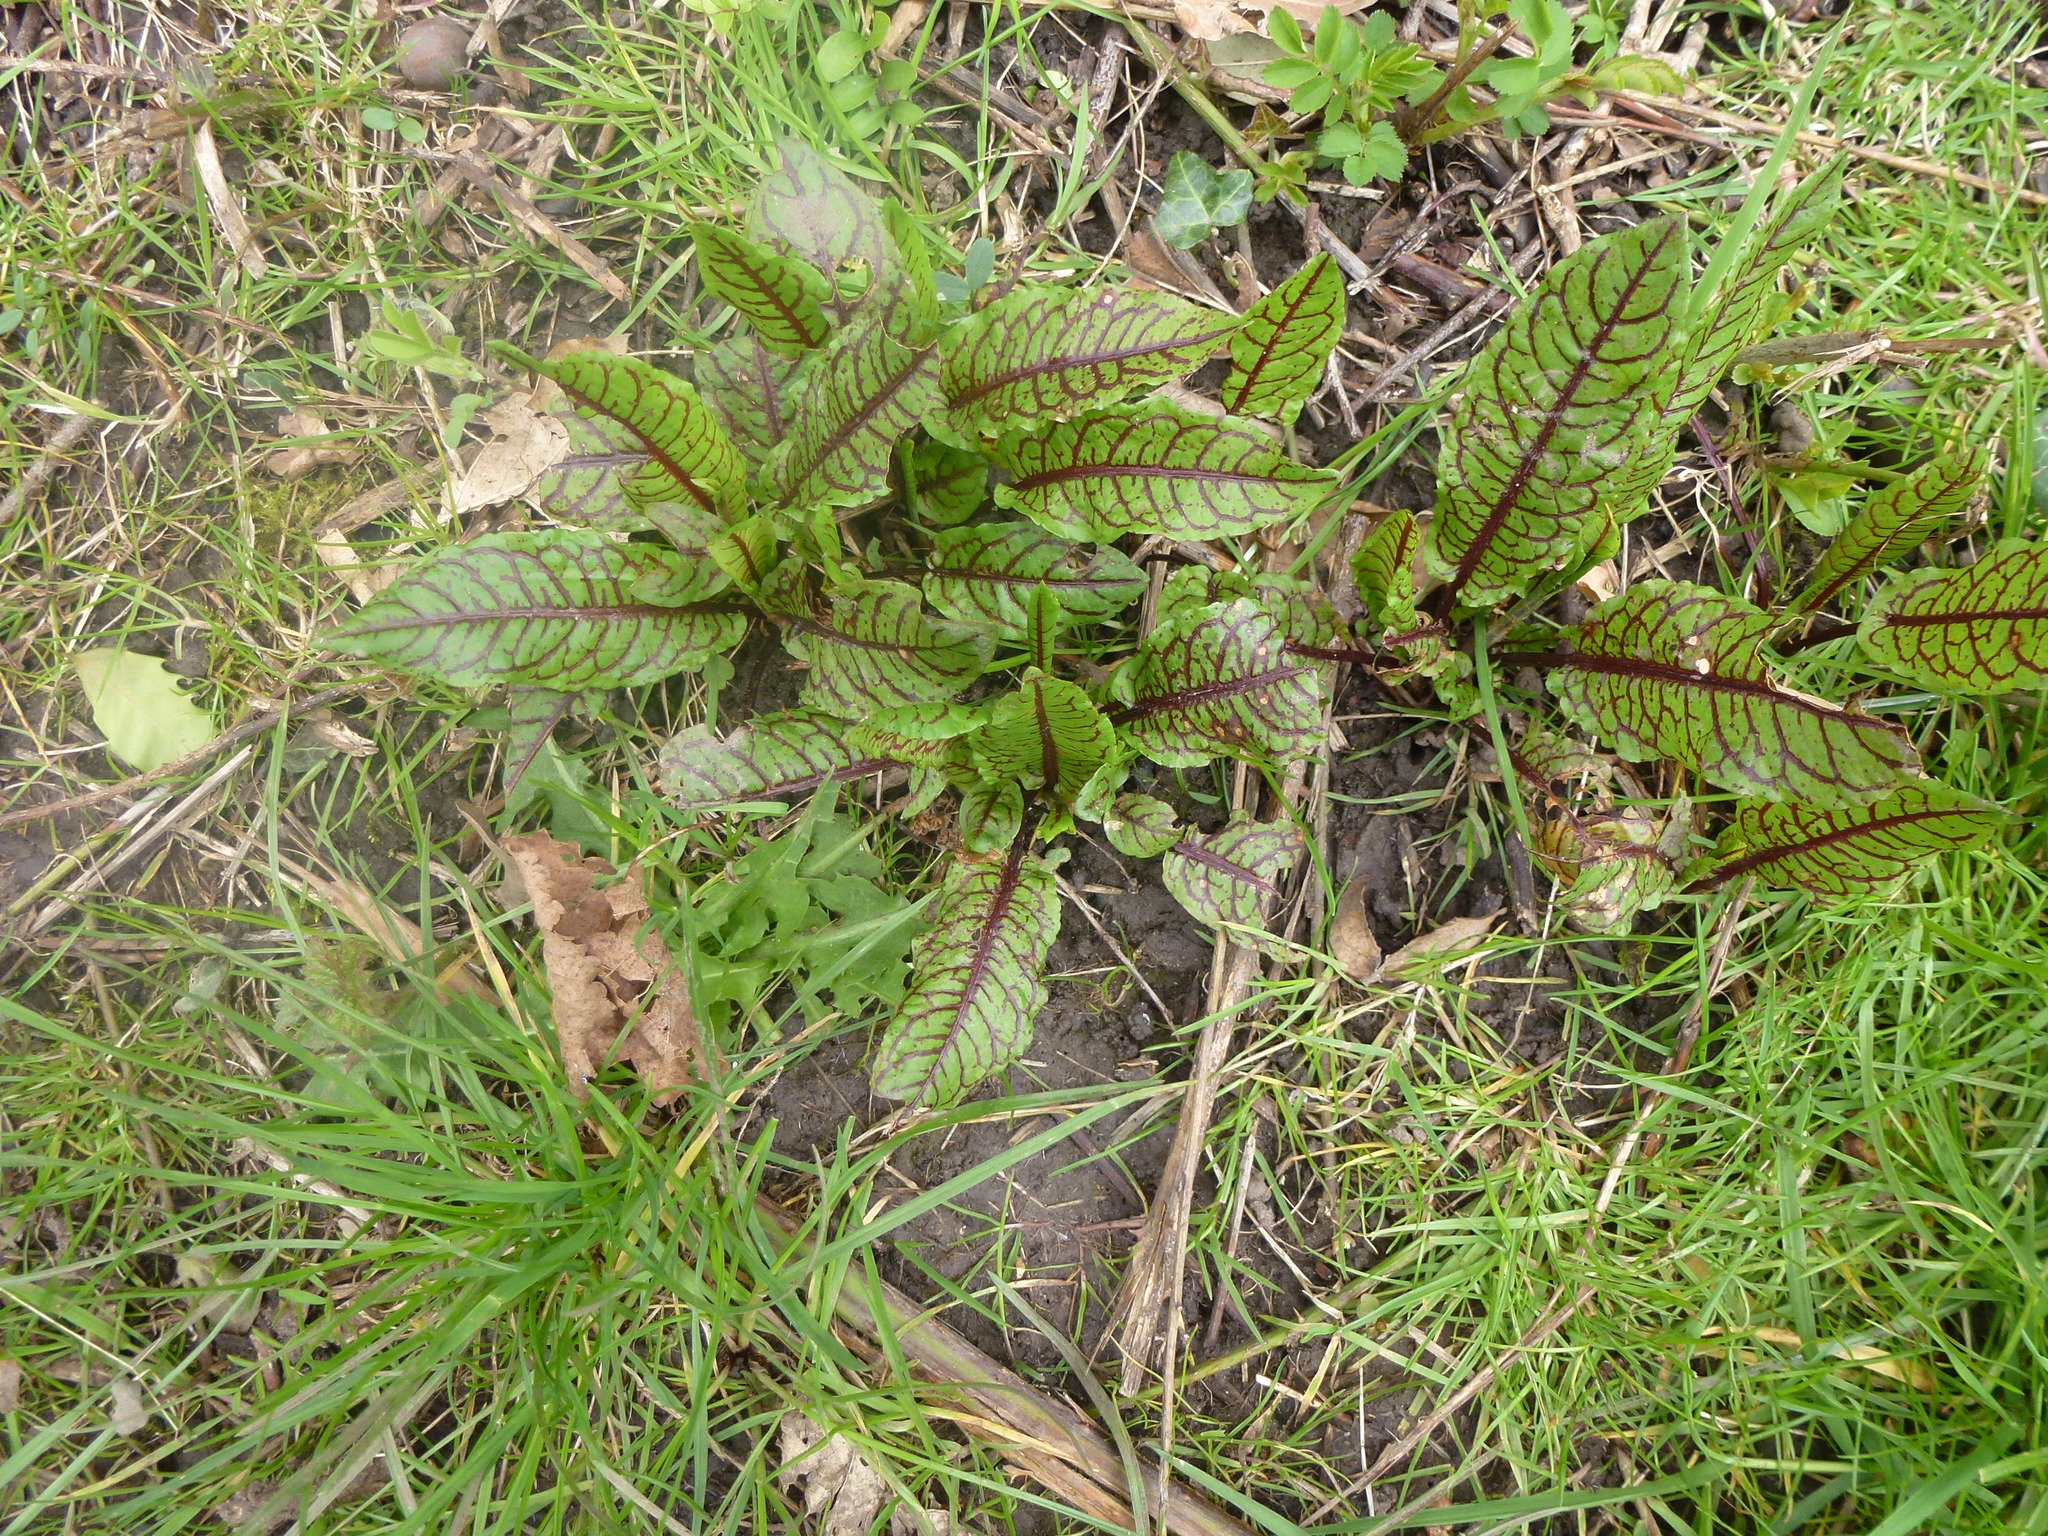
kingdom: Plantae
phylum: Tracheophyta
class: Magnoliopsida
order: Caryophyllales
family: Polygonaceae
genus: Rumex
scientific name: Rumex sanguineus
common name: Wood dock
